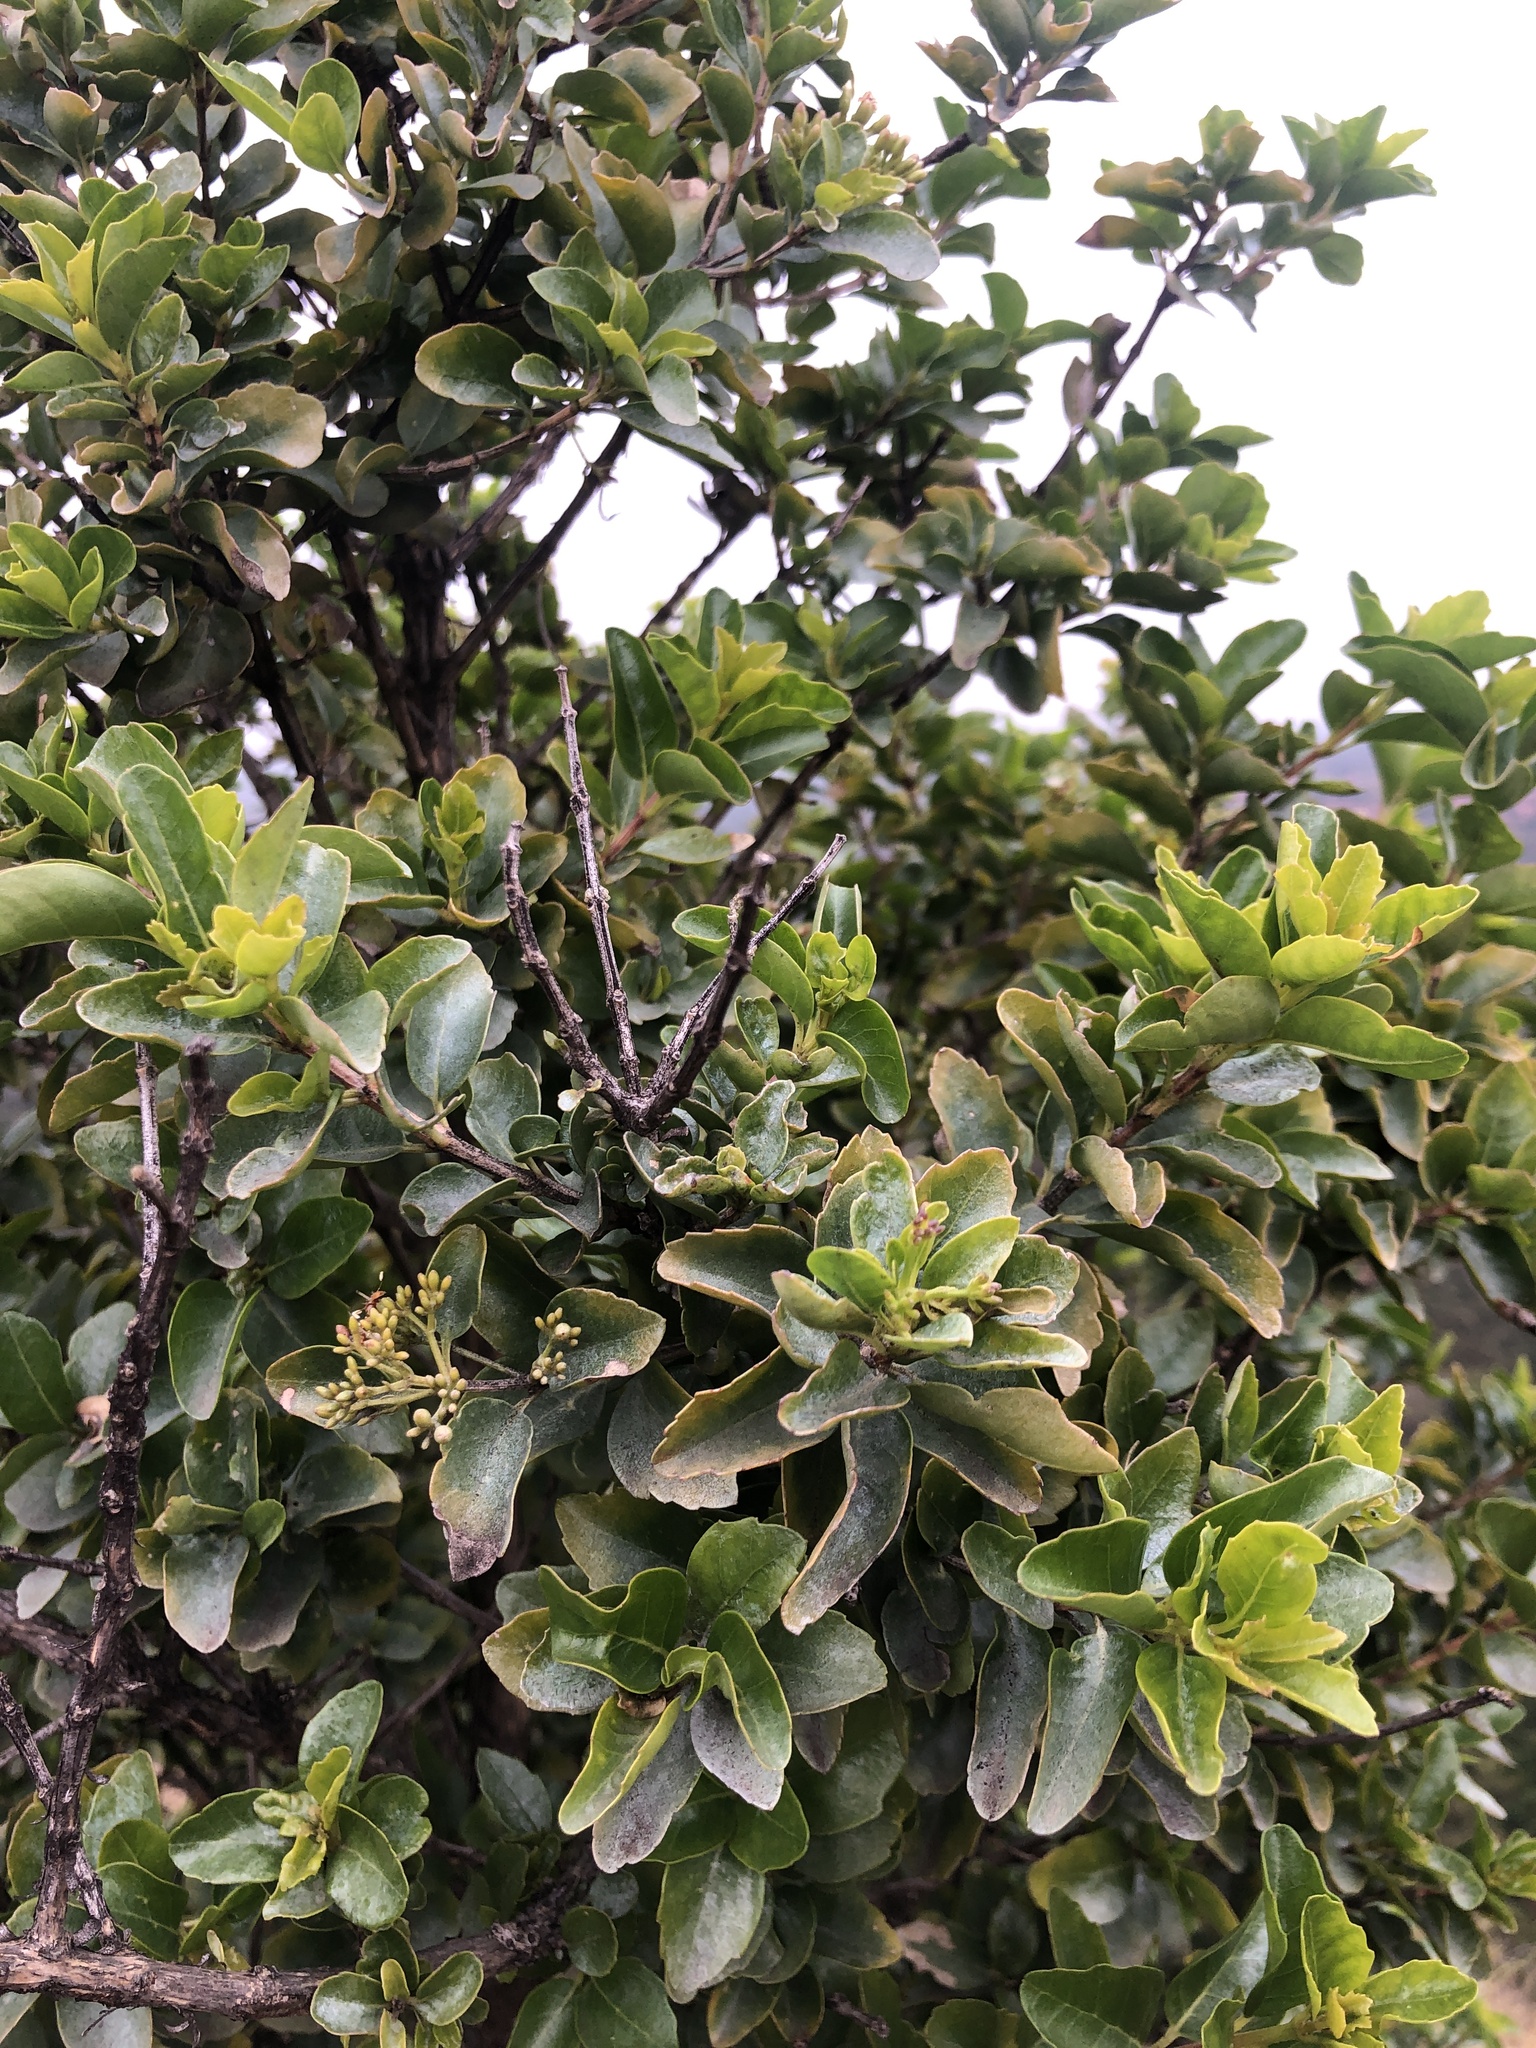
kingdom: Plantae
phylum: Tracheophyta
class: Magnoliopsida
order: Lamiales
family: Stilbaceae
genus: Nuxia
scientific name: Nuxia congesta
